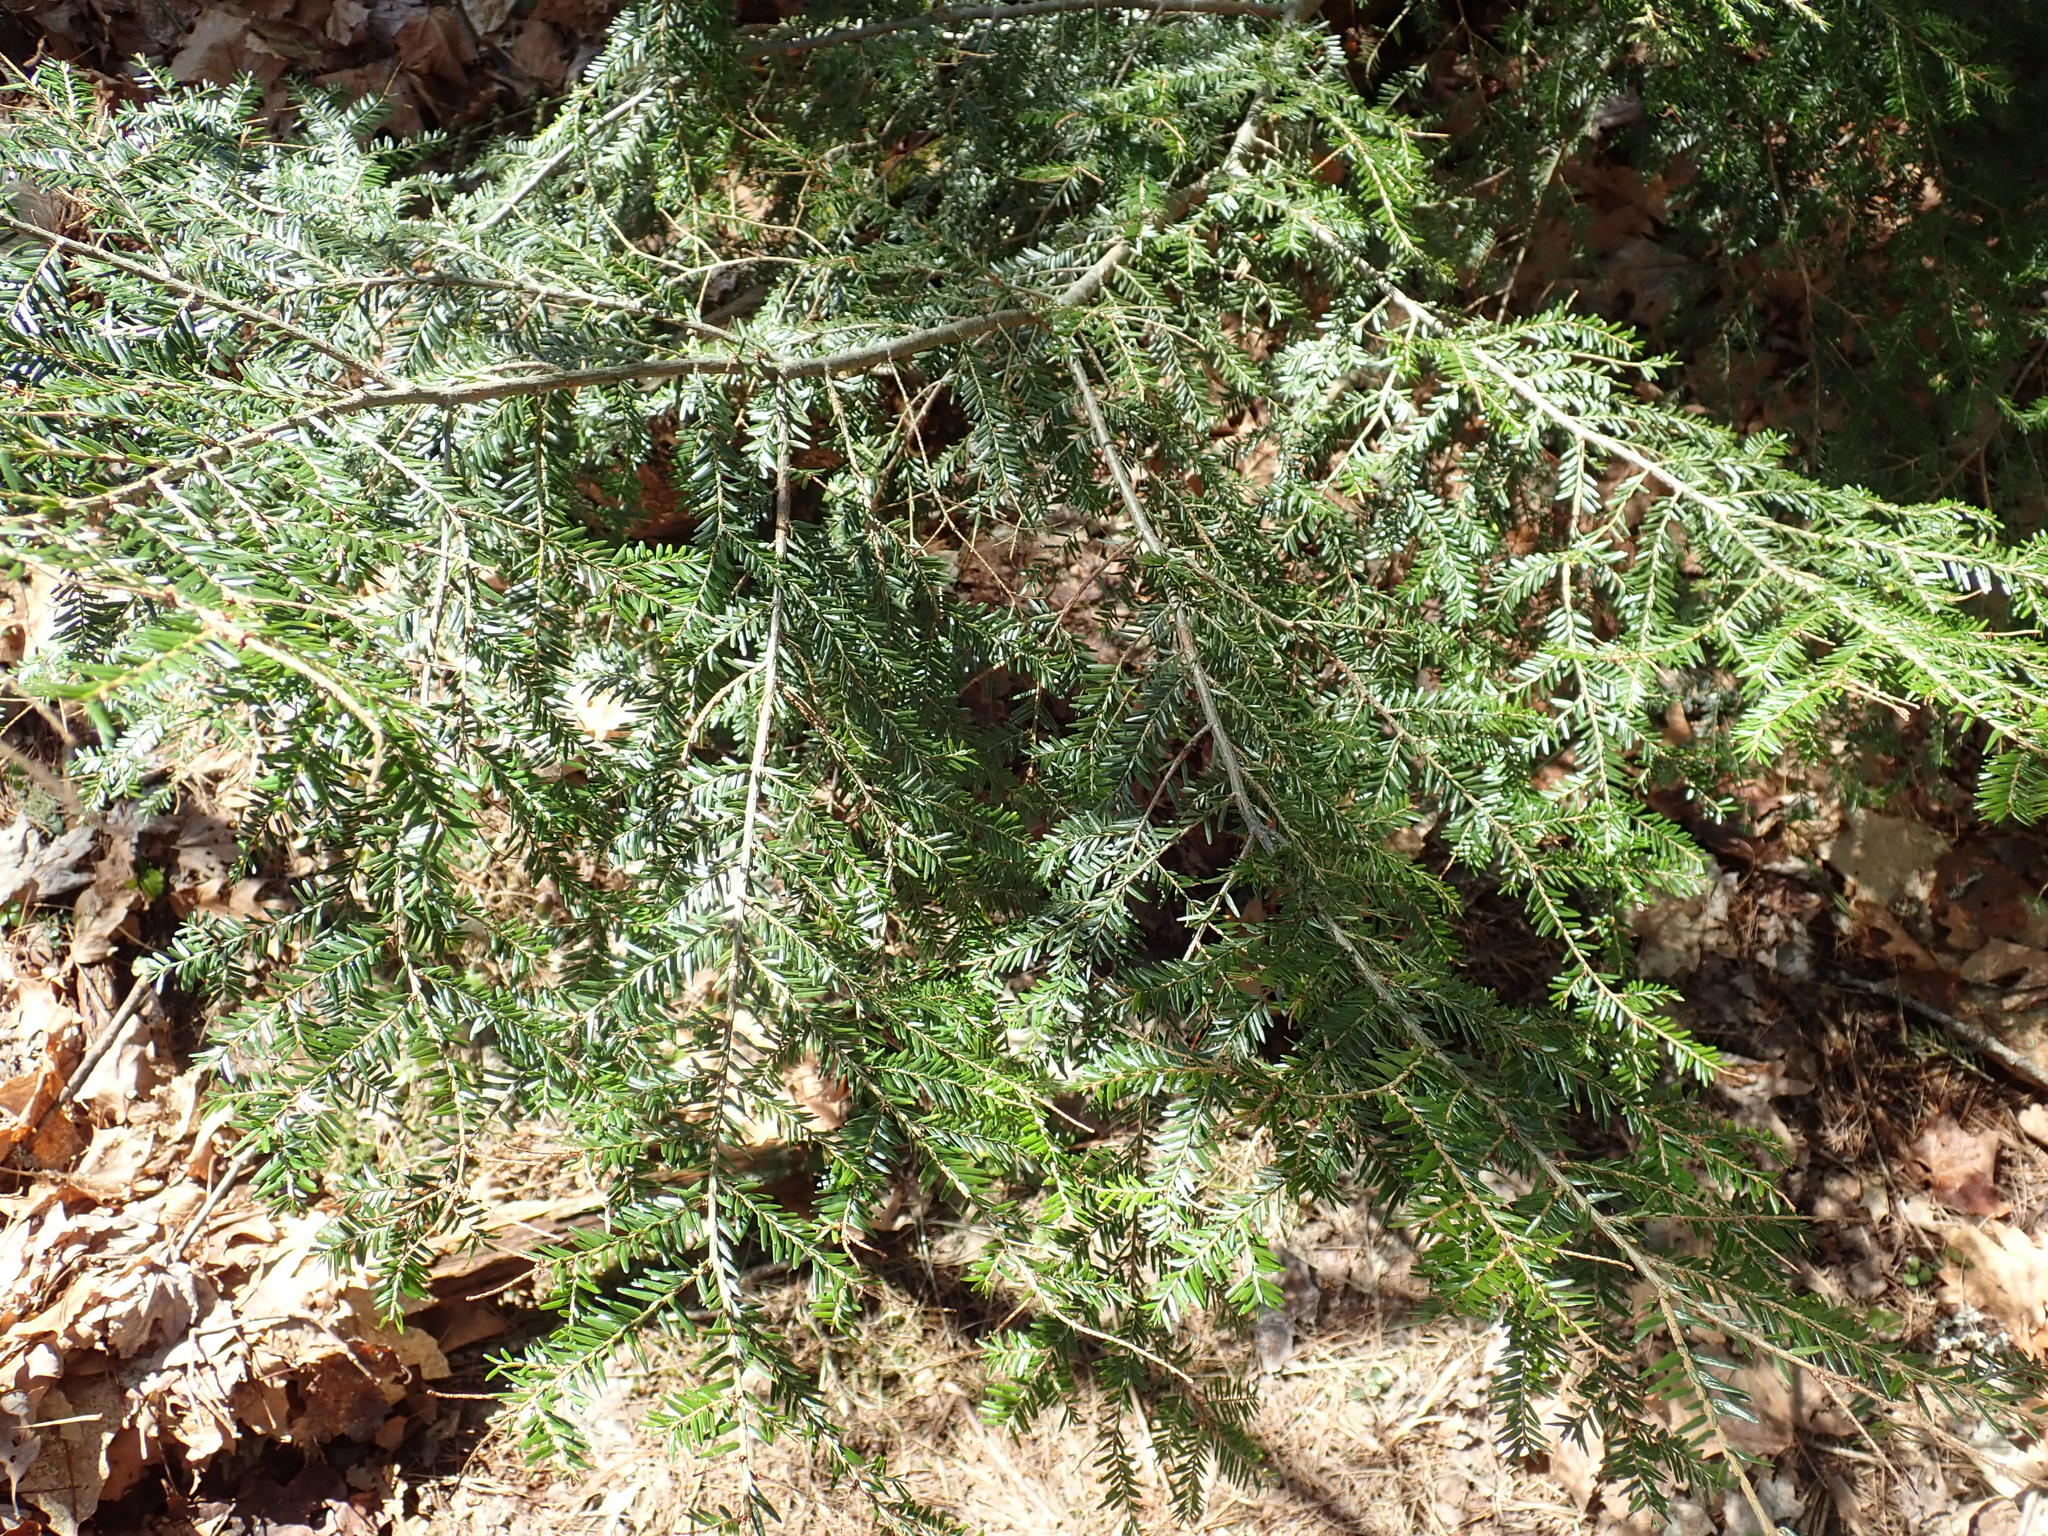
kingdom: Plantae
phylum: Tracheophyta
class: Pinopsida
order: Pinales
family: Pinaceae
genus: Tsuga
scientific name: Tsuga canadensis
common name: Eastern hemlock
